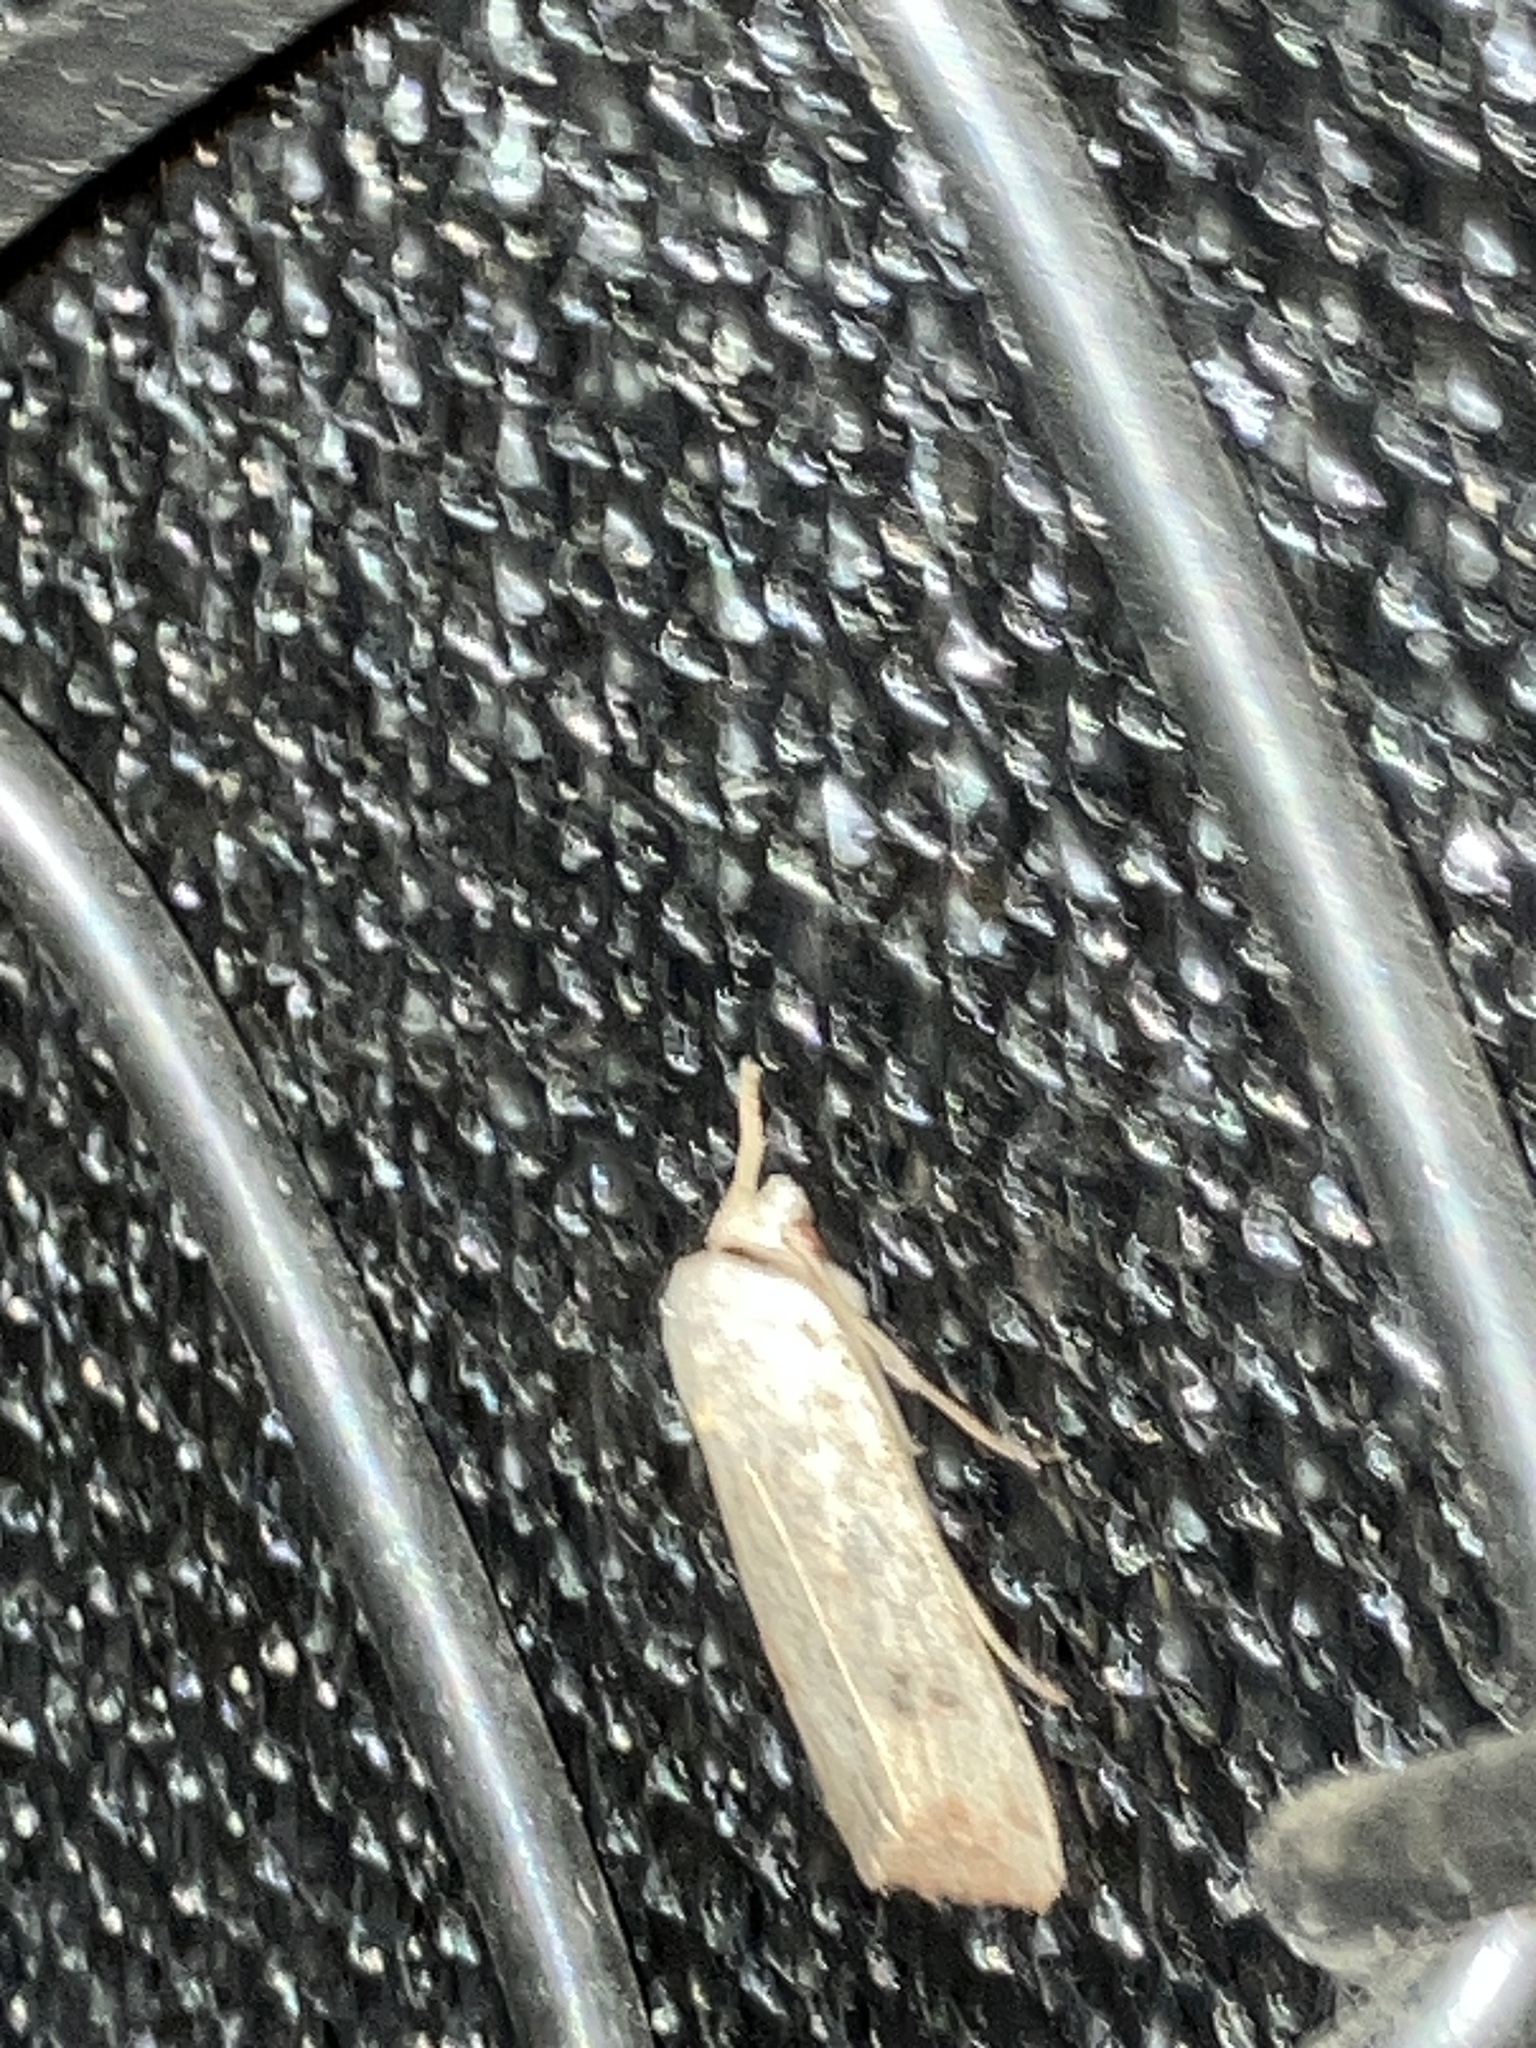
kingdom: Animalia
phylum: Arthropoda
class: Insecta
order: Lepidoptera
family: Noctuidae
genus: Anicla
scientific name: Anicla infecta
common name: Green cutworm
